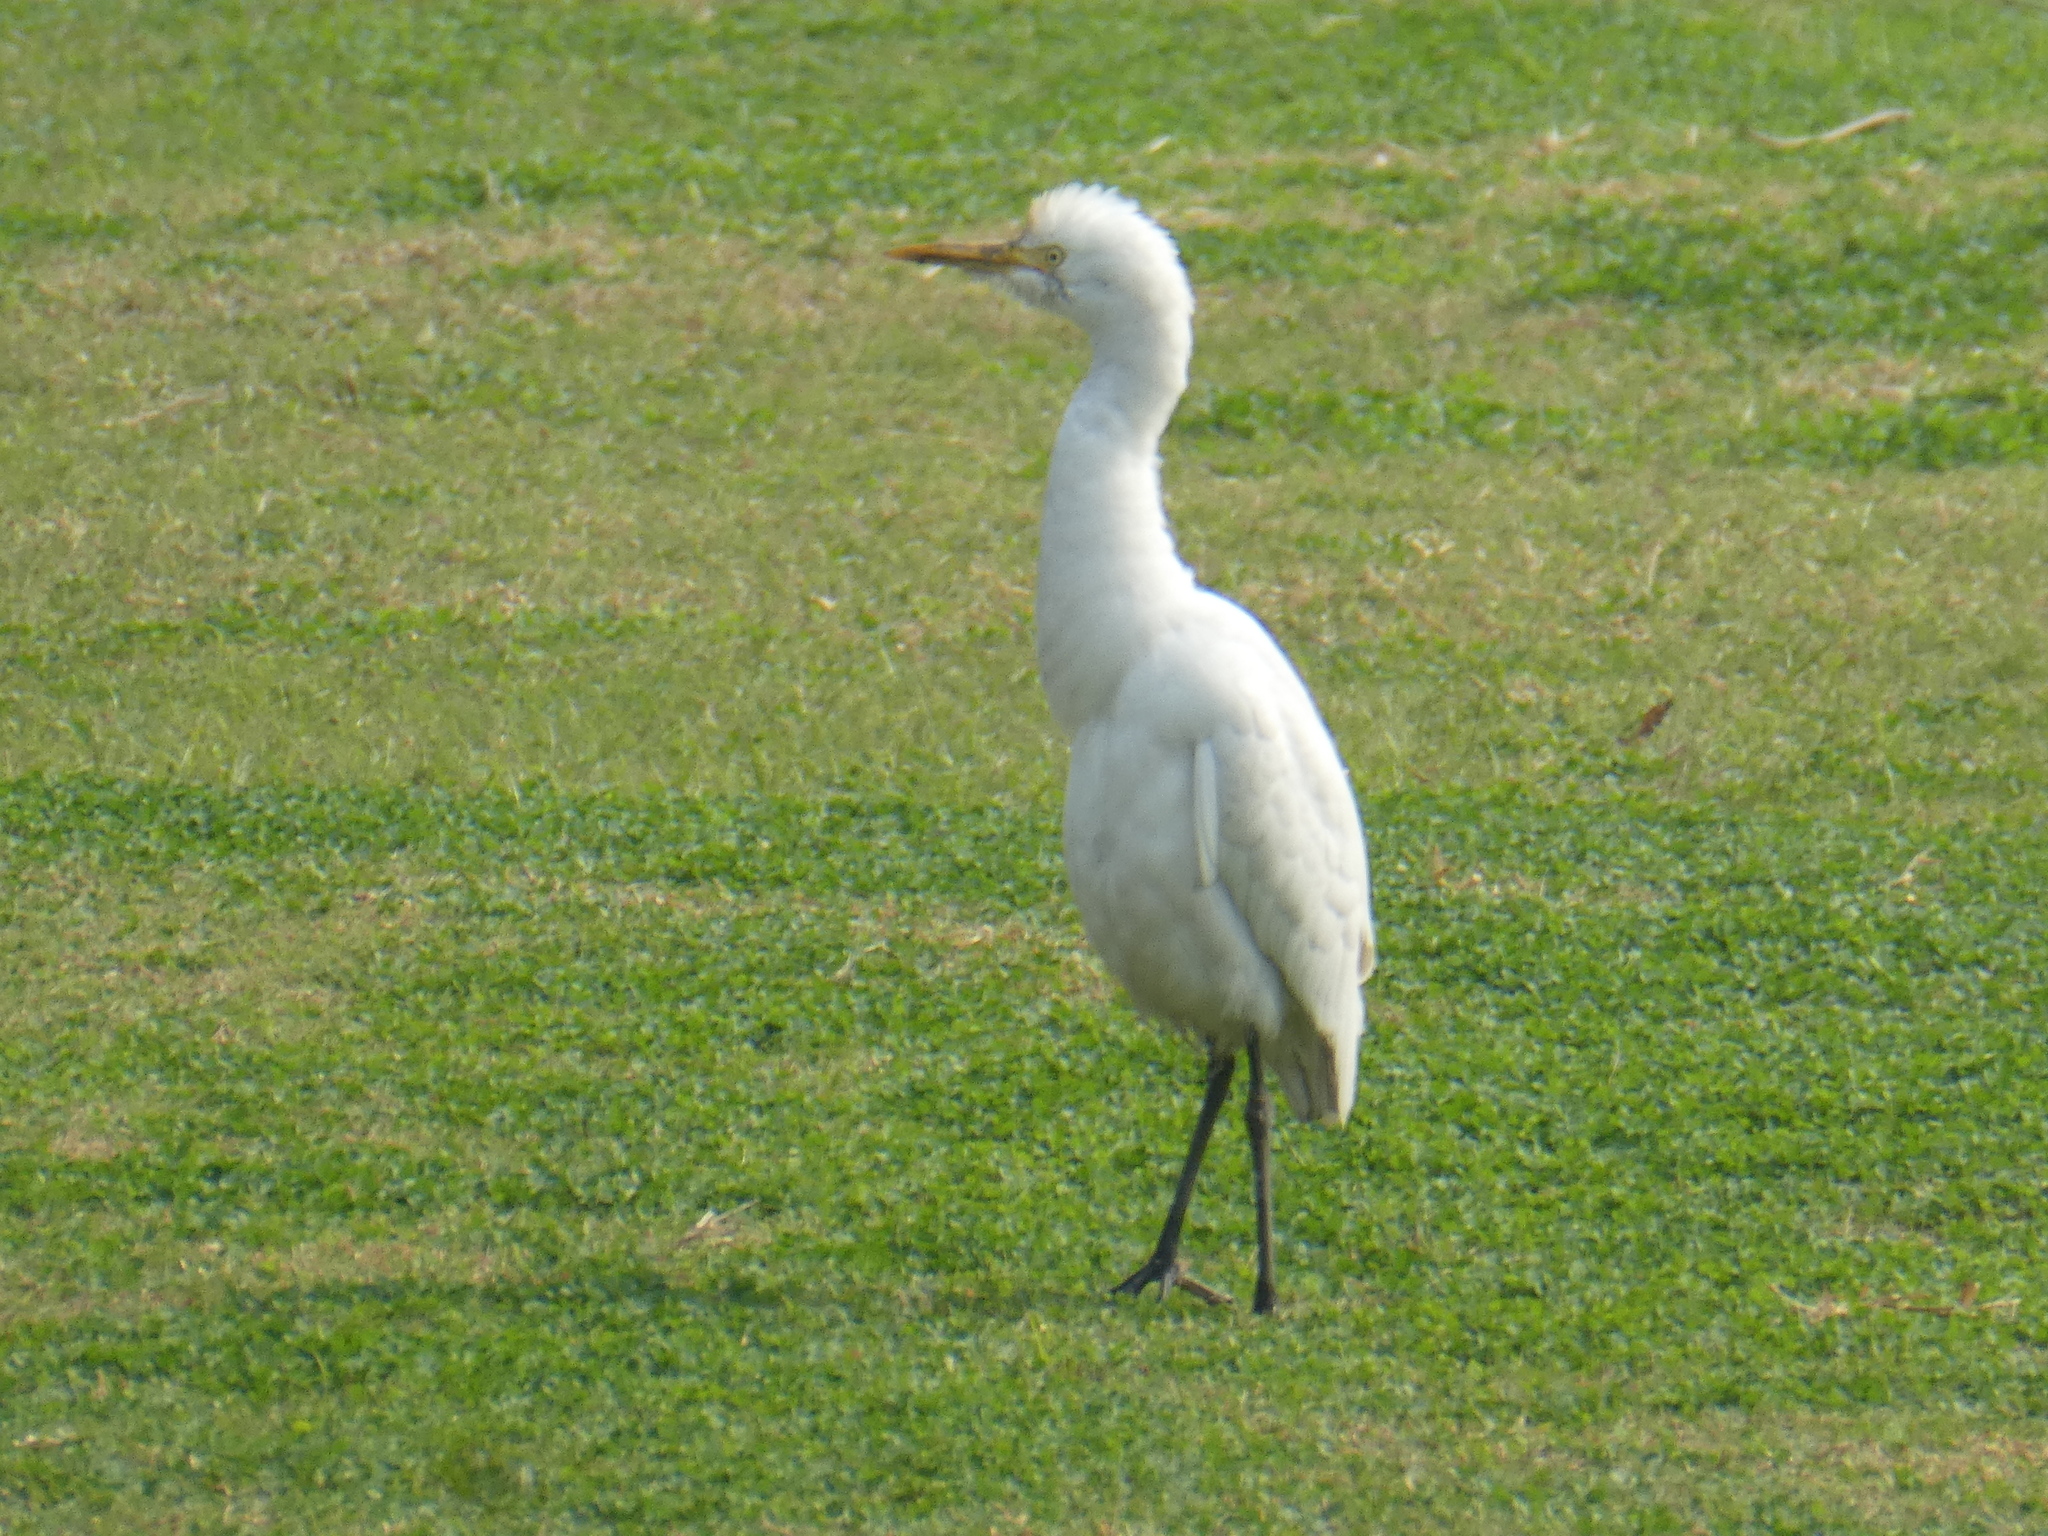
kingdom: Animalia
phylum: Chordata
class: Aves
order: Pelecaniformes
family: Ardeidae
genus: Bubulcus
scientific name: Bubulcus coromandus
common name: Eastern cattle egret
